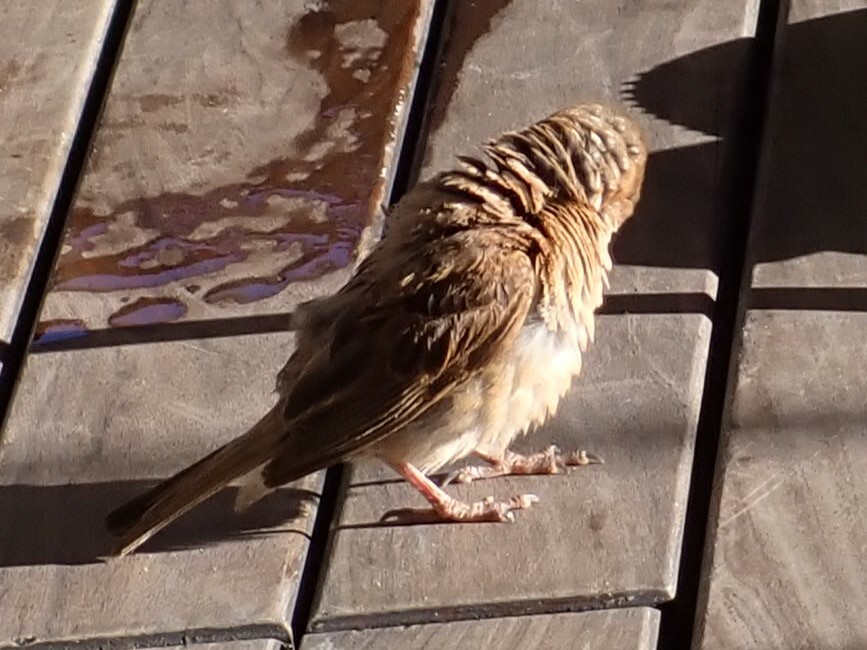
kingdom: Animalia
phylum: Chordata
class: Aves
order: Passeriformes
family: Passeridae
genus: Passer
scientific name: Passer domesticus
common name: House sparrow
